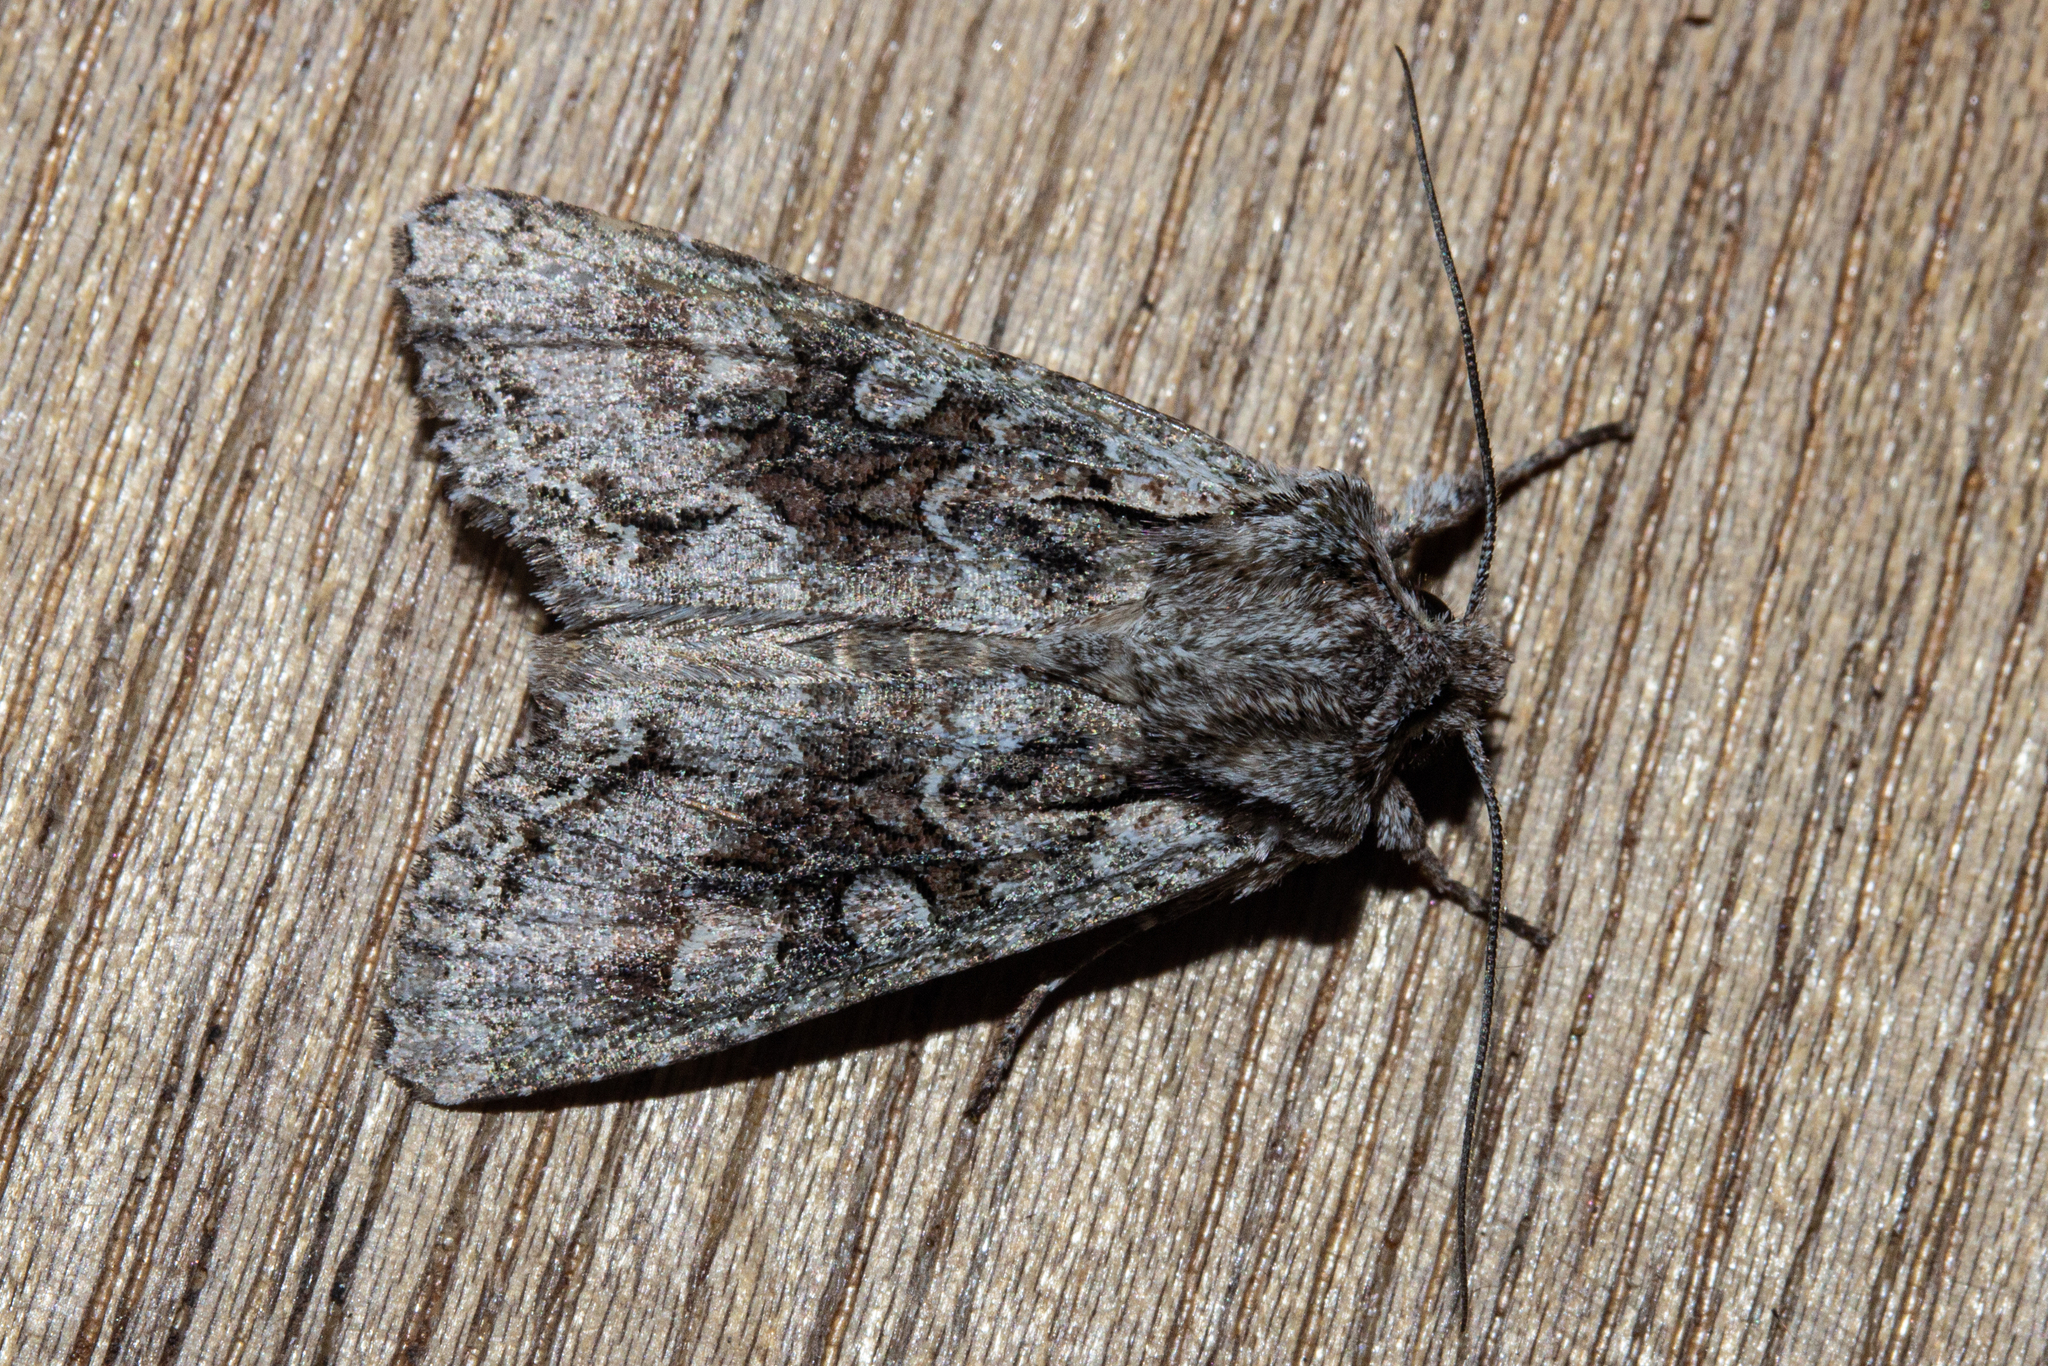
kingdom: Animalia
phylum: Arthropoda
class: Insecta
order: Lepidoptera
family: Noctuidae
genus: Ichneutica
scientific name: Ichneutica mutans
